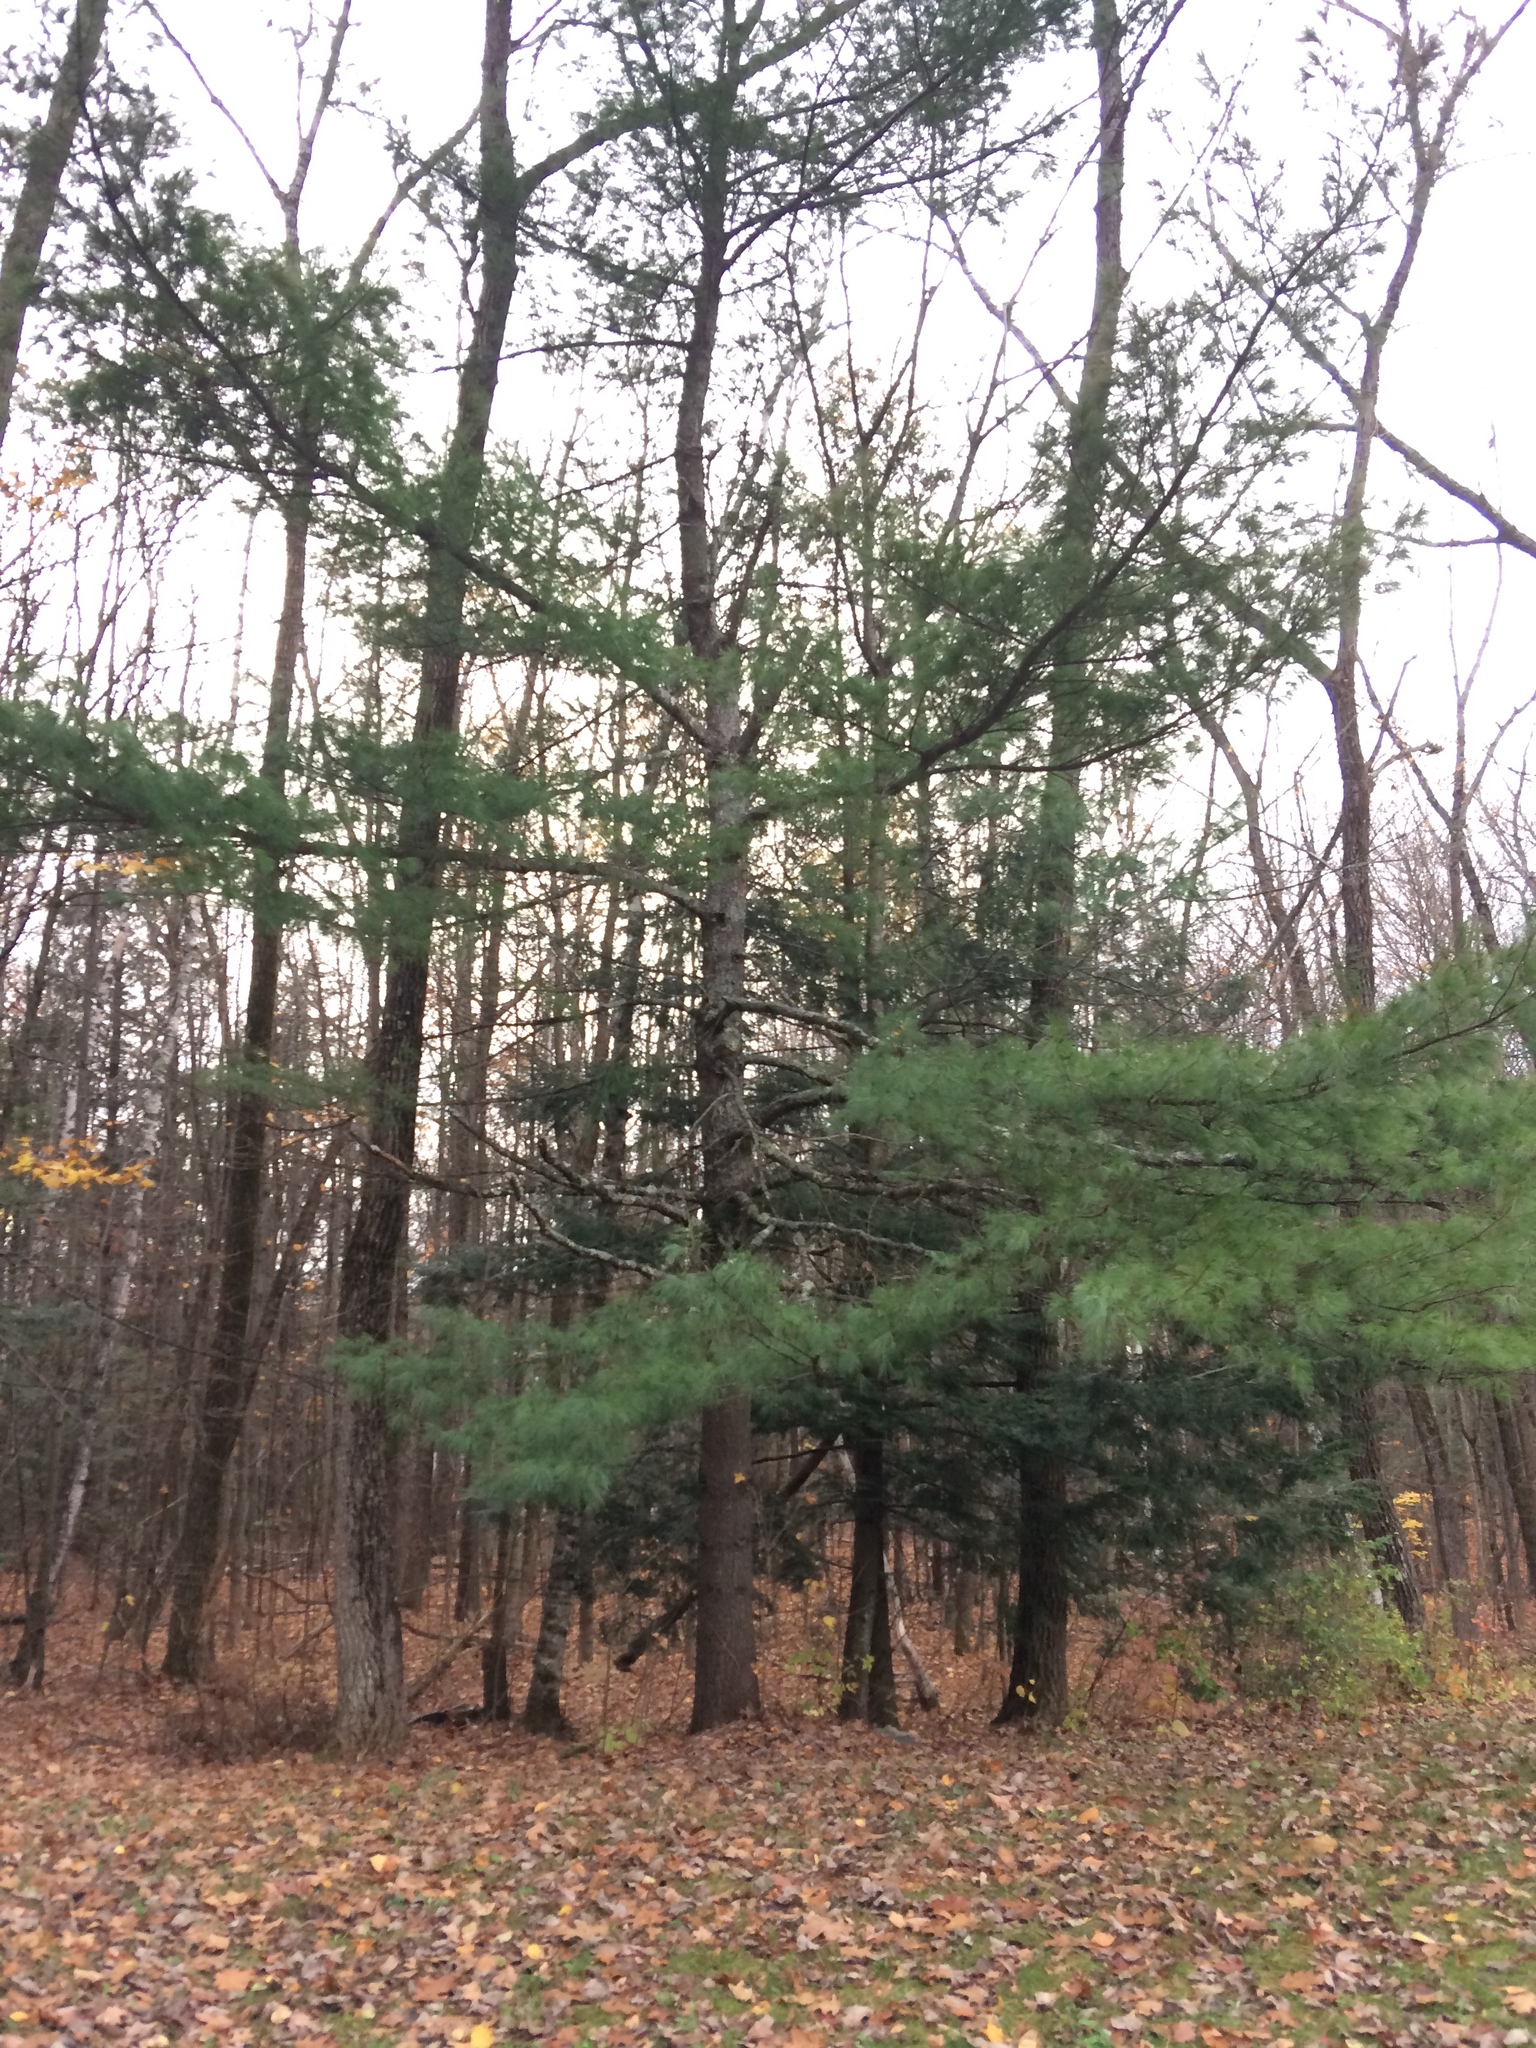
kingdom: Plantae
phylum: Tracheophyta
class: Pinopsida
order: Pinales
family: Pinaceae
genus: Pinus
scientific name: Pinus strobus
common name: Weymouth pine
